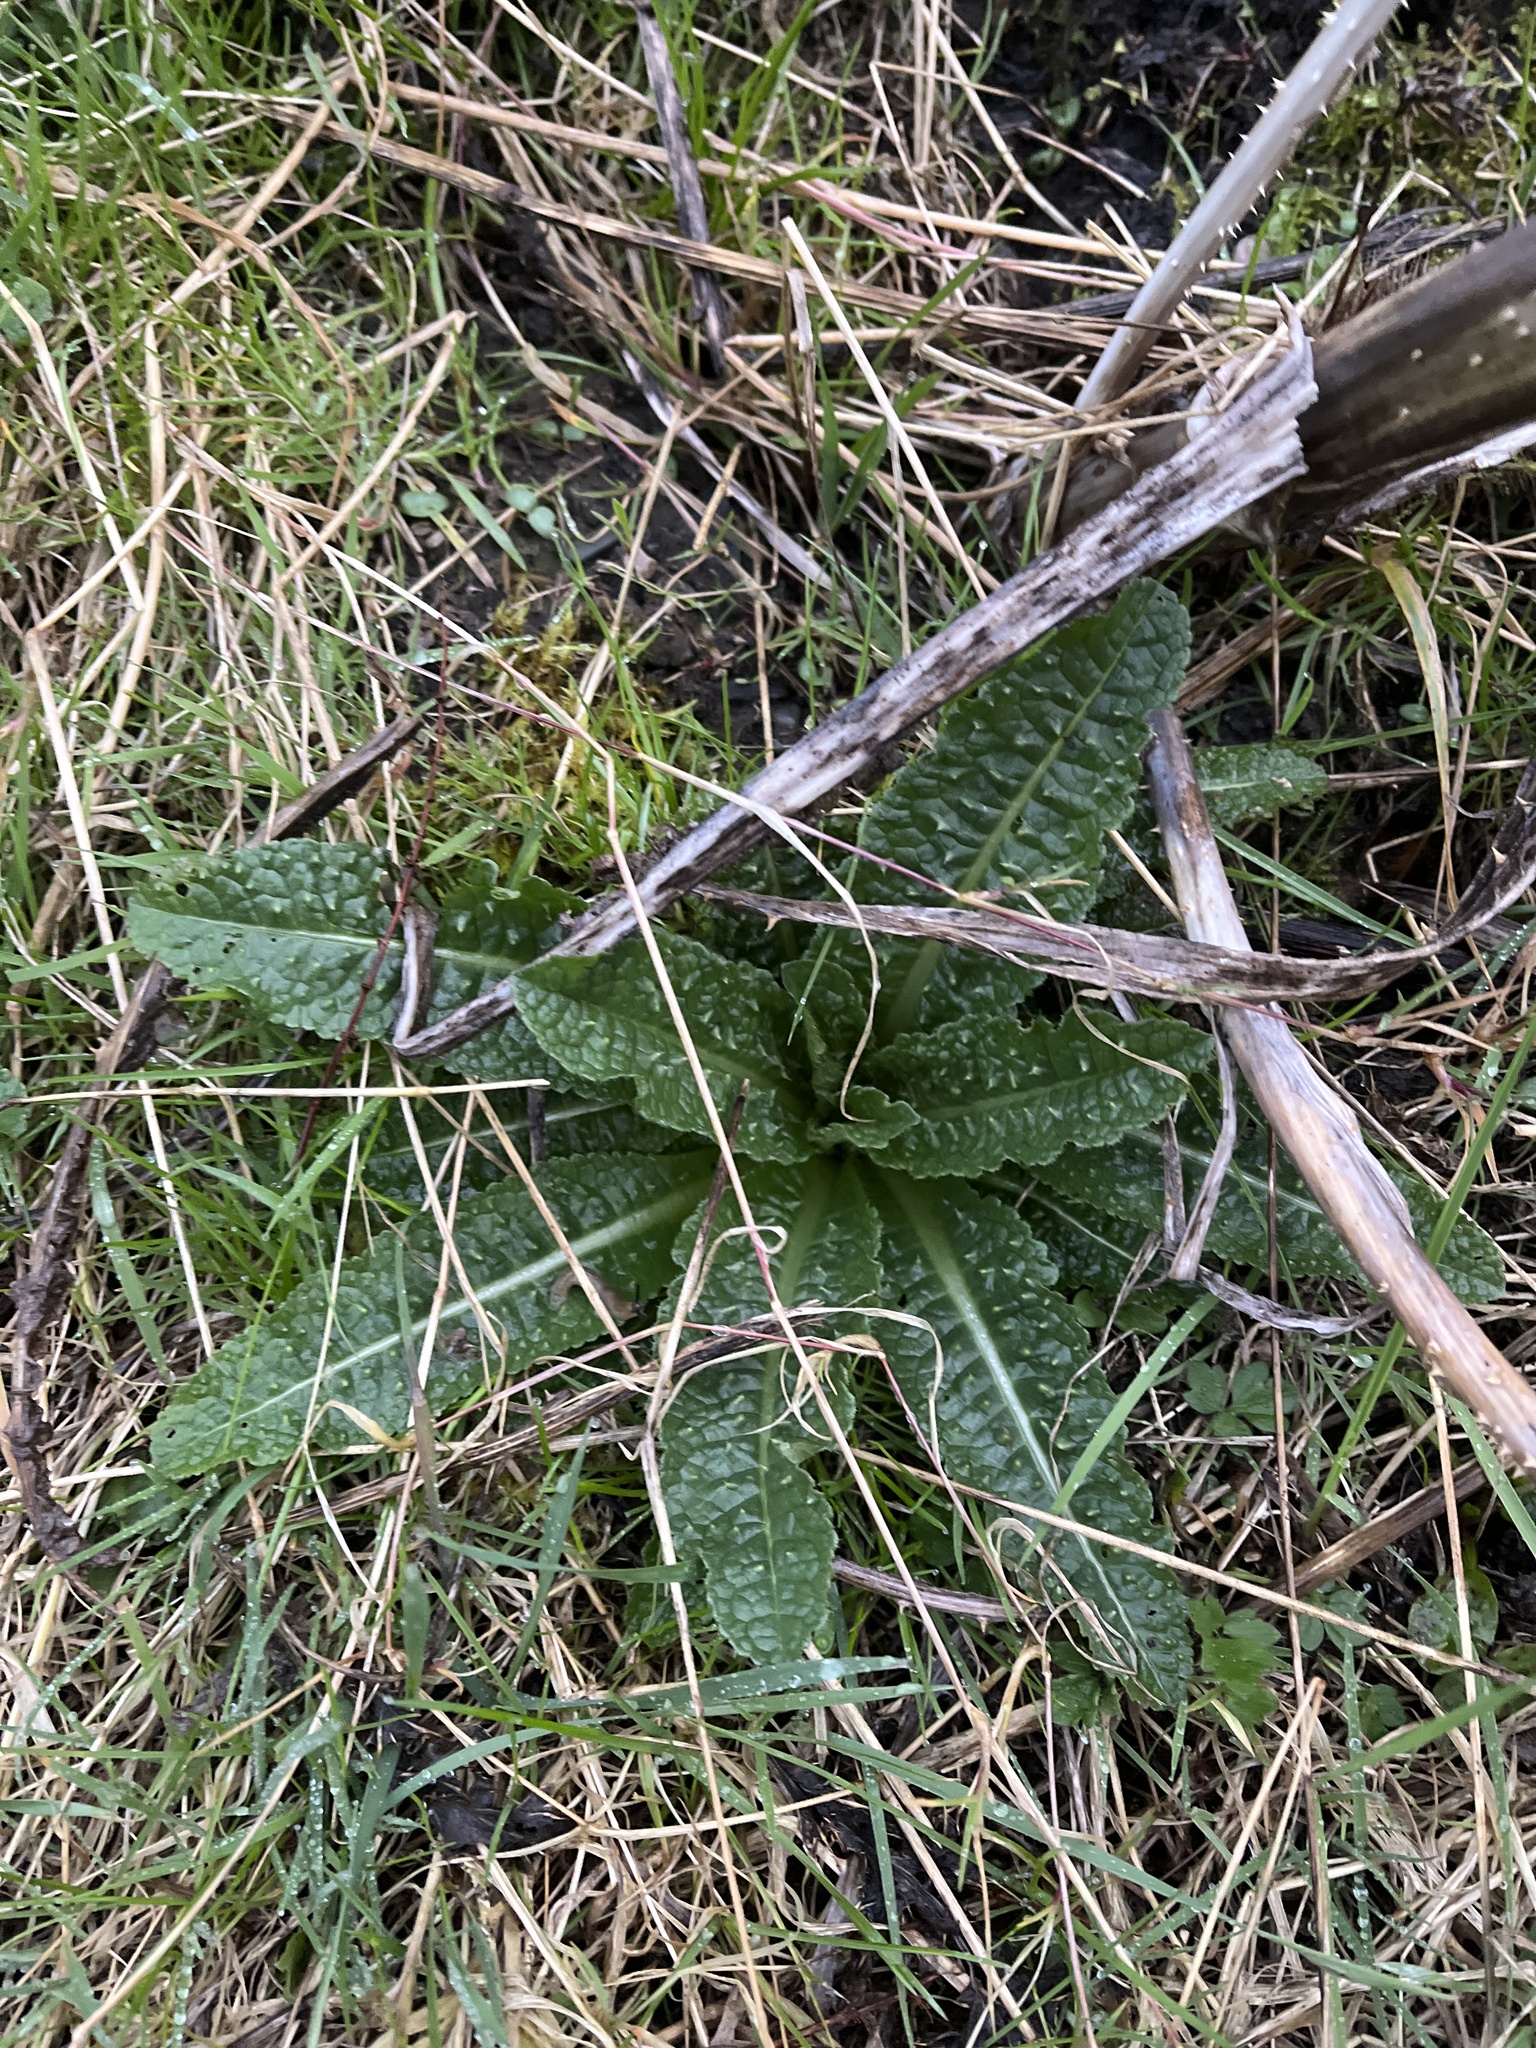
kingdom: Plantae
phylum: Tracheophyta
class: Magnoliopsida
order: Dipsacales
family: Caprifoliaceae
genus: Dipsacus
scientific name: Dipsacus fullonum
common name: Teasel
